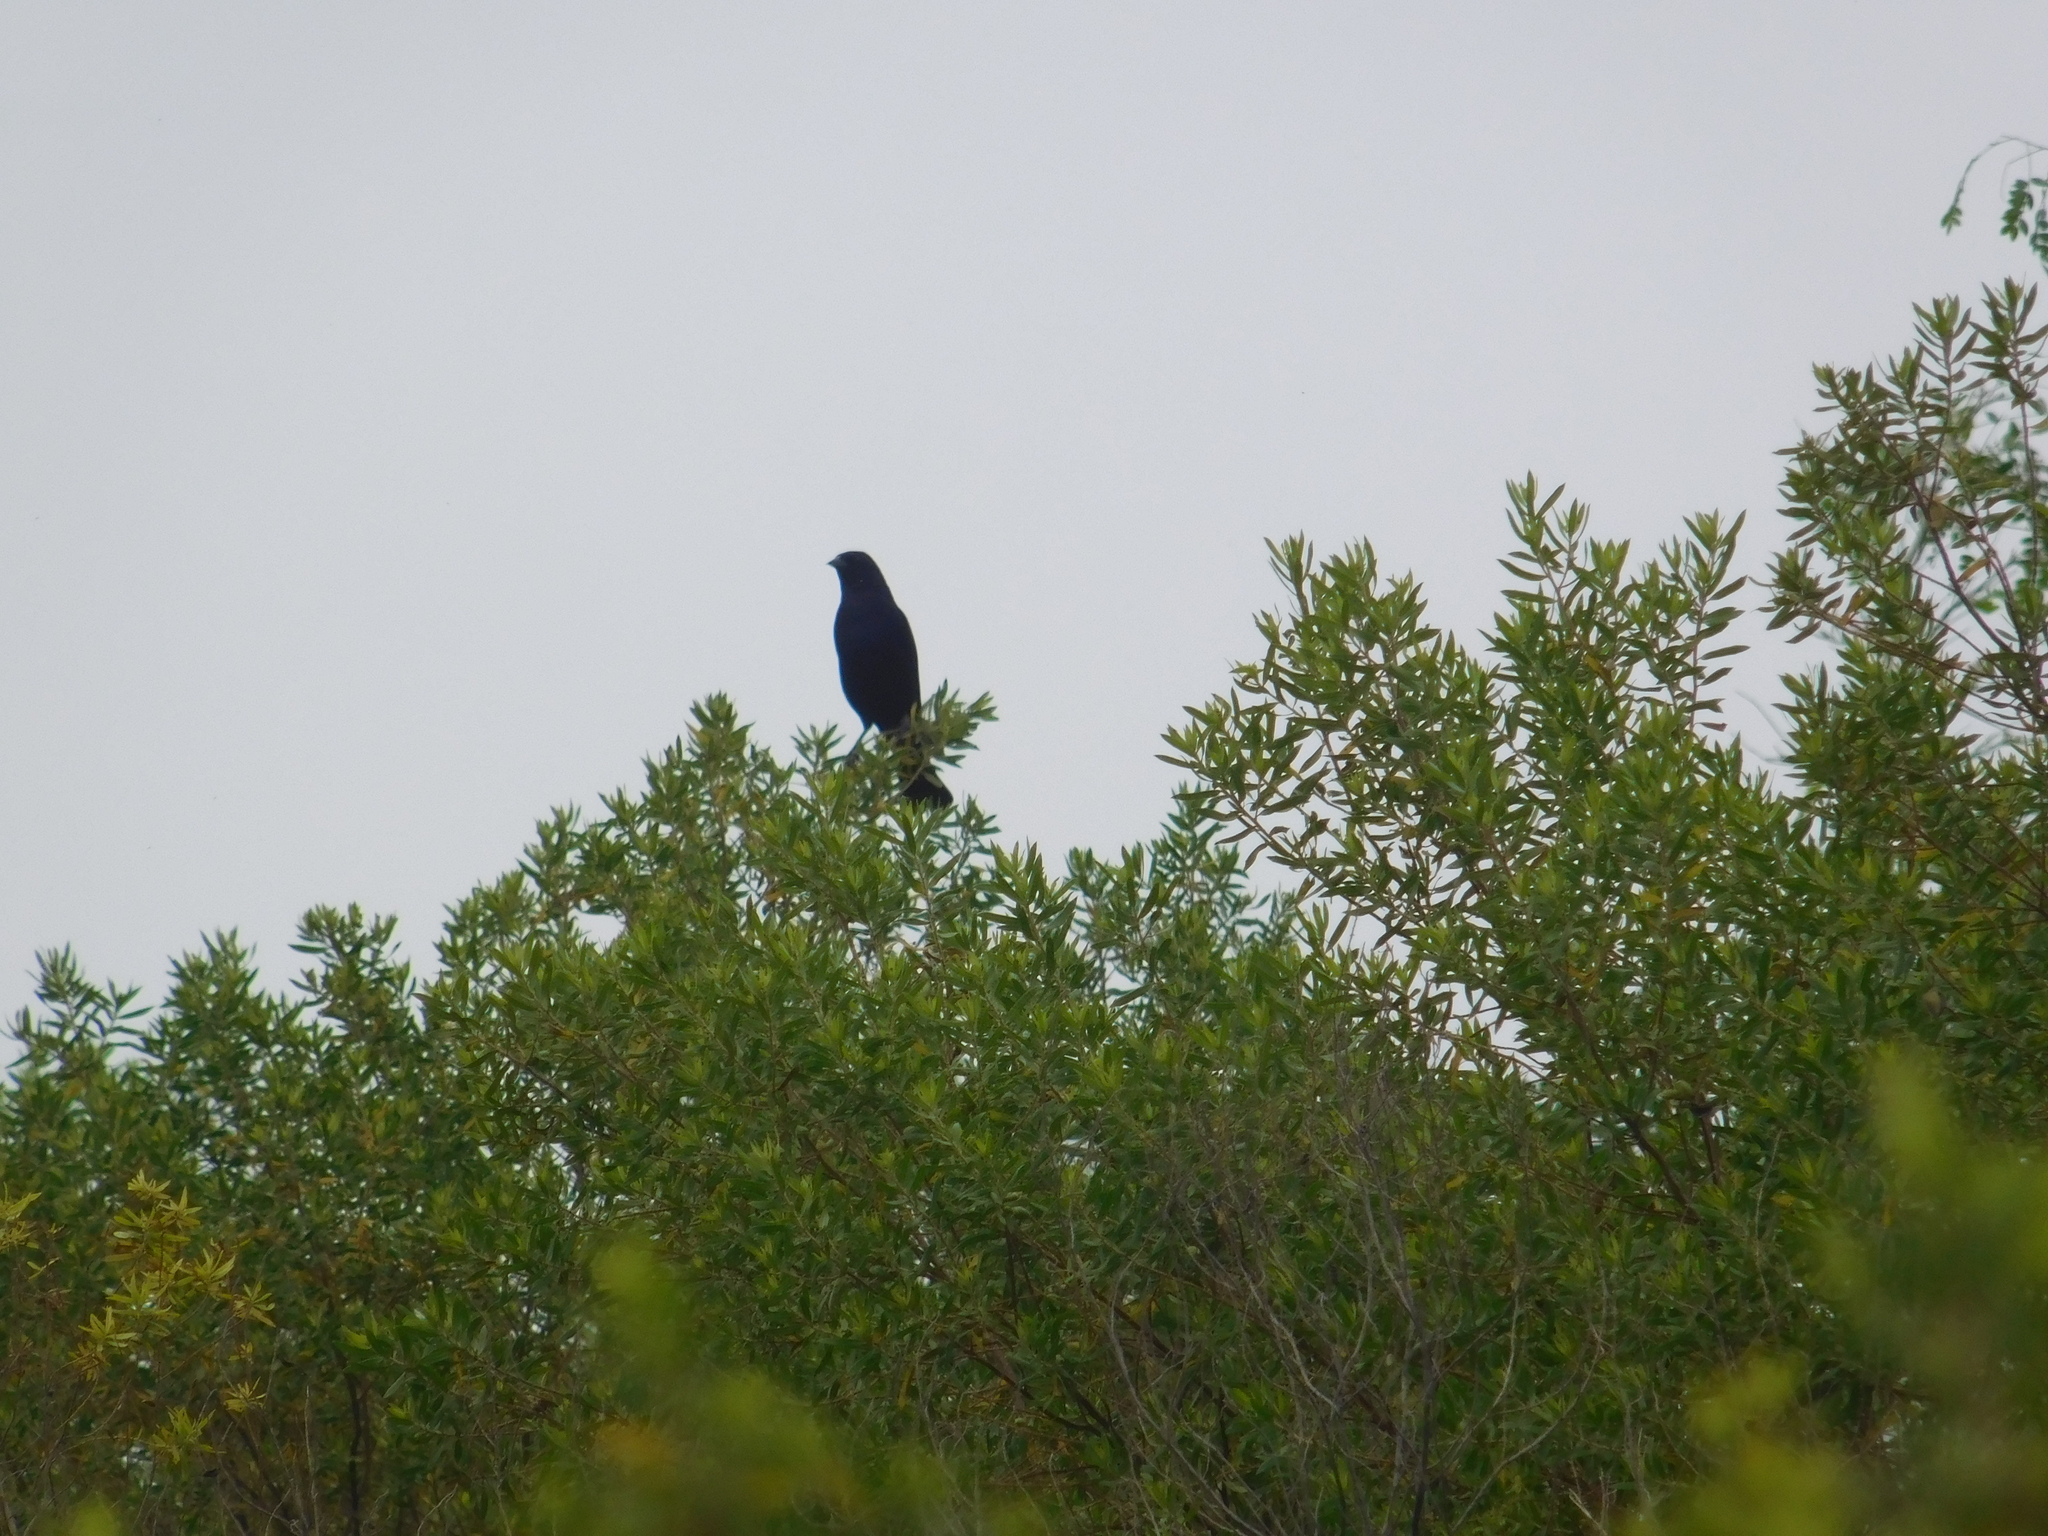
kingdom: Animalia
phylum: Chordata
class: Aves
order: Passeriformes
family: Icteridae
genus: Molothrus
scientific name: Molothrus bonariensis
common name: Shiny cowbird
